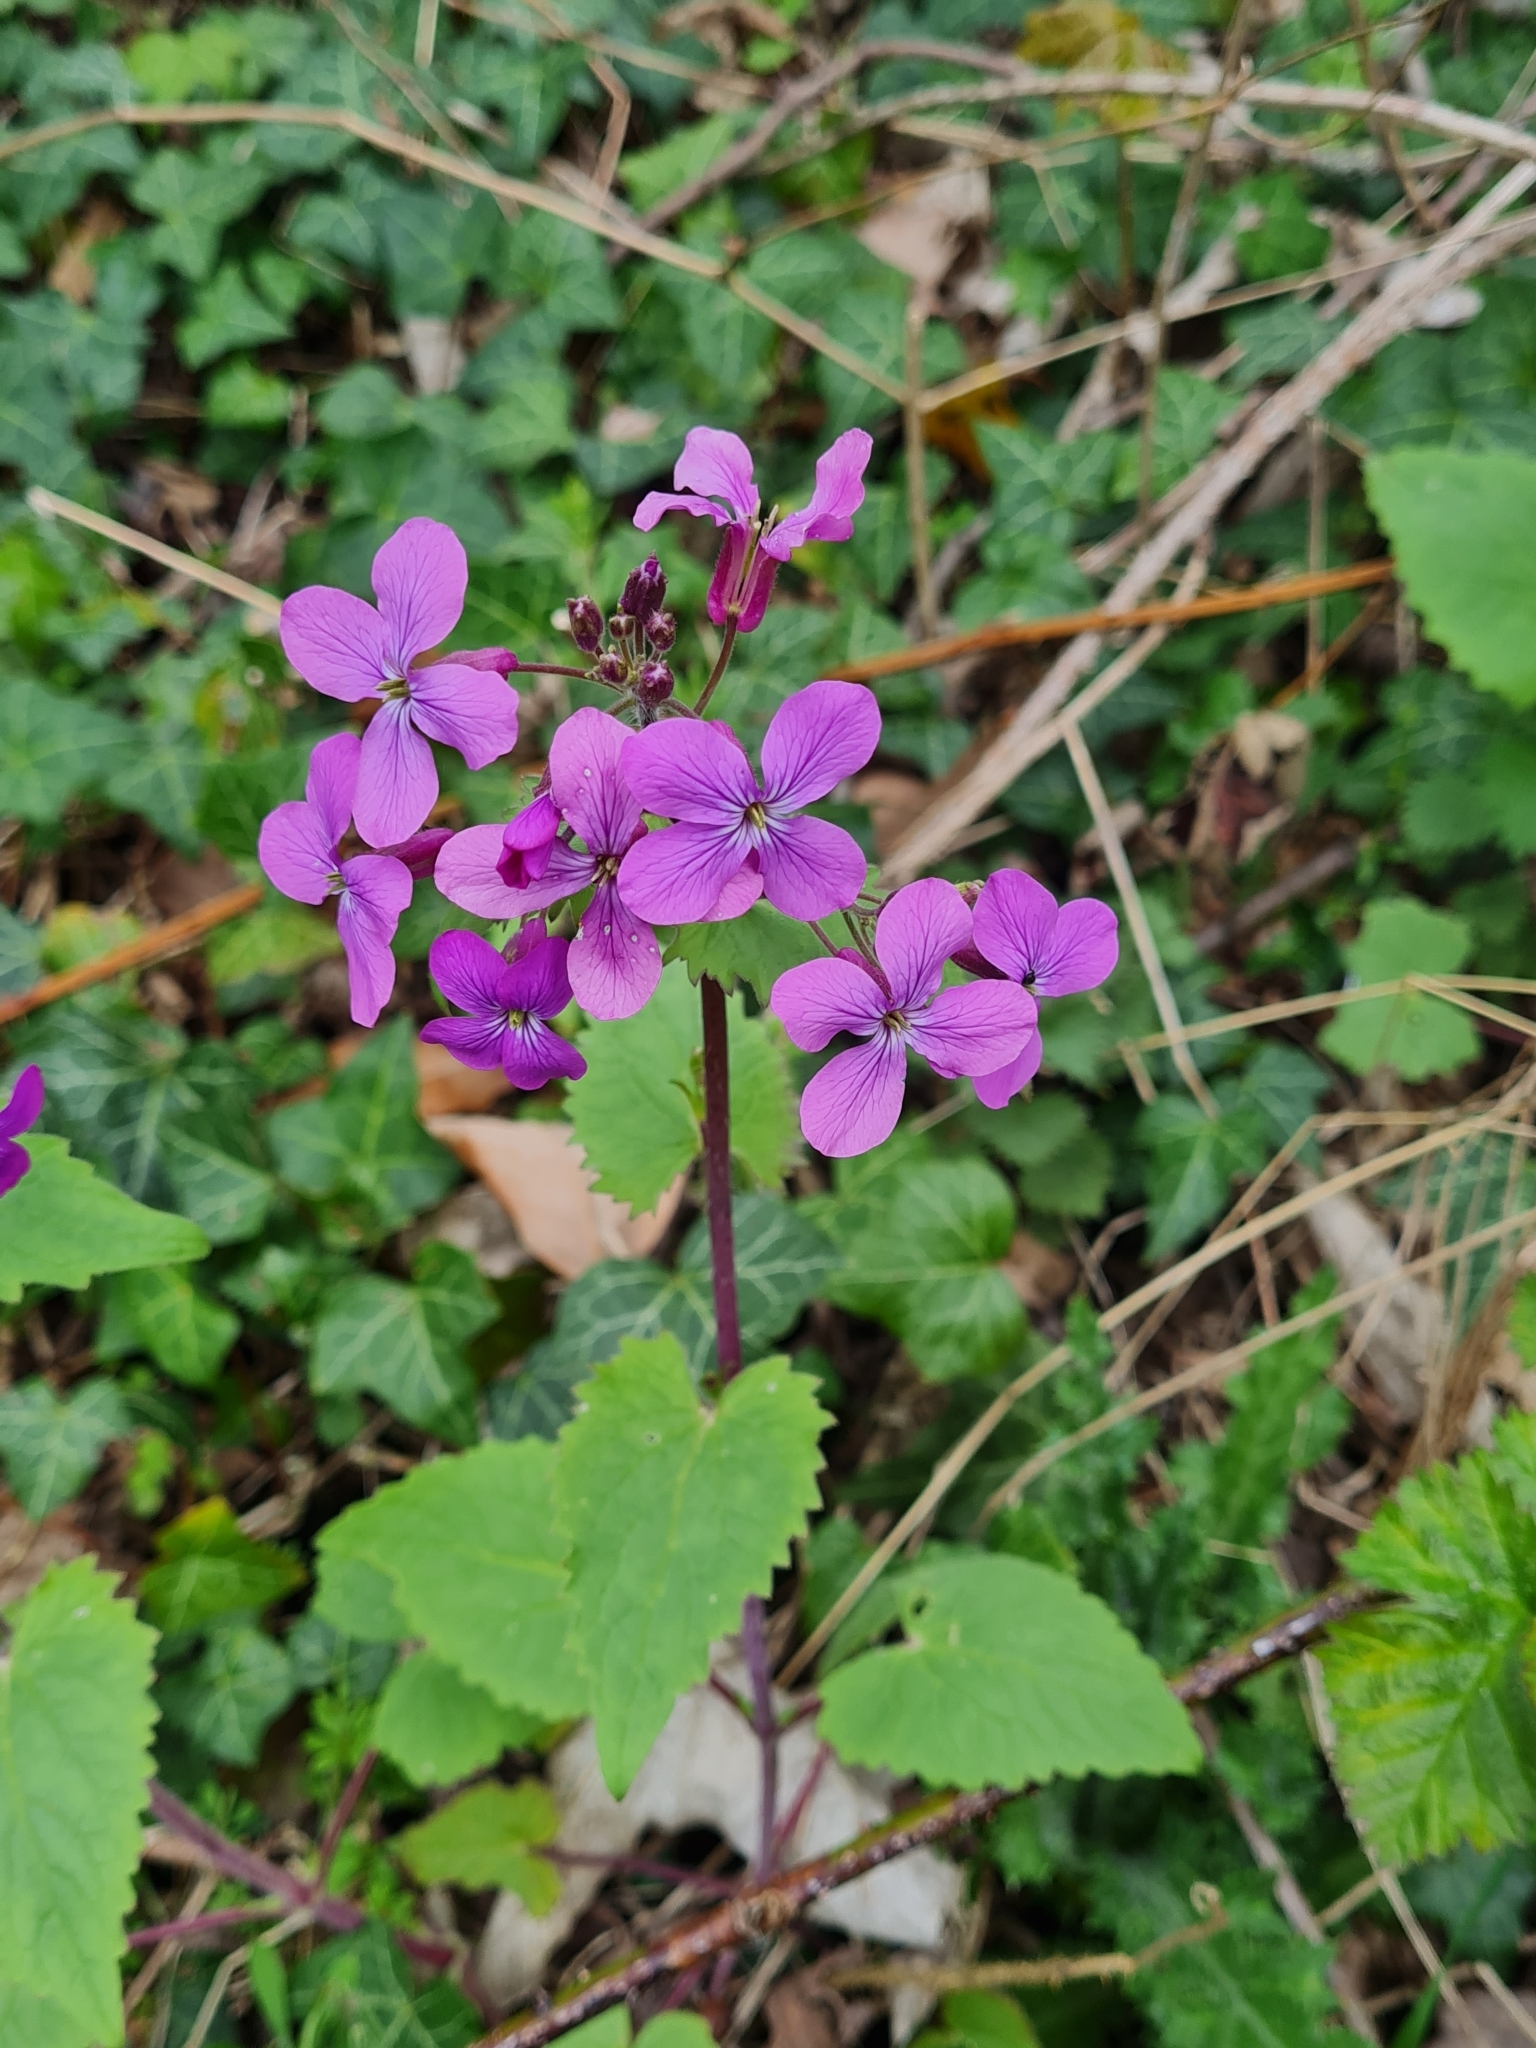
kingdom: Plantae
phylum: Tracheophyta
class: Magnoliopsida
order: Brassicales
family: Brassicaceae
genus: Lunaria
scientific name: Lunaria annua
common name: Honesty
